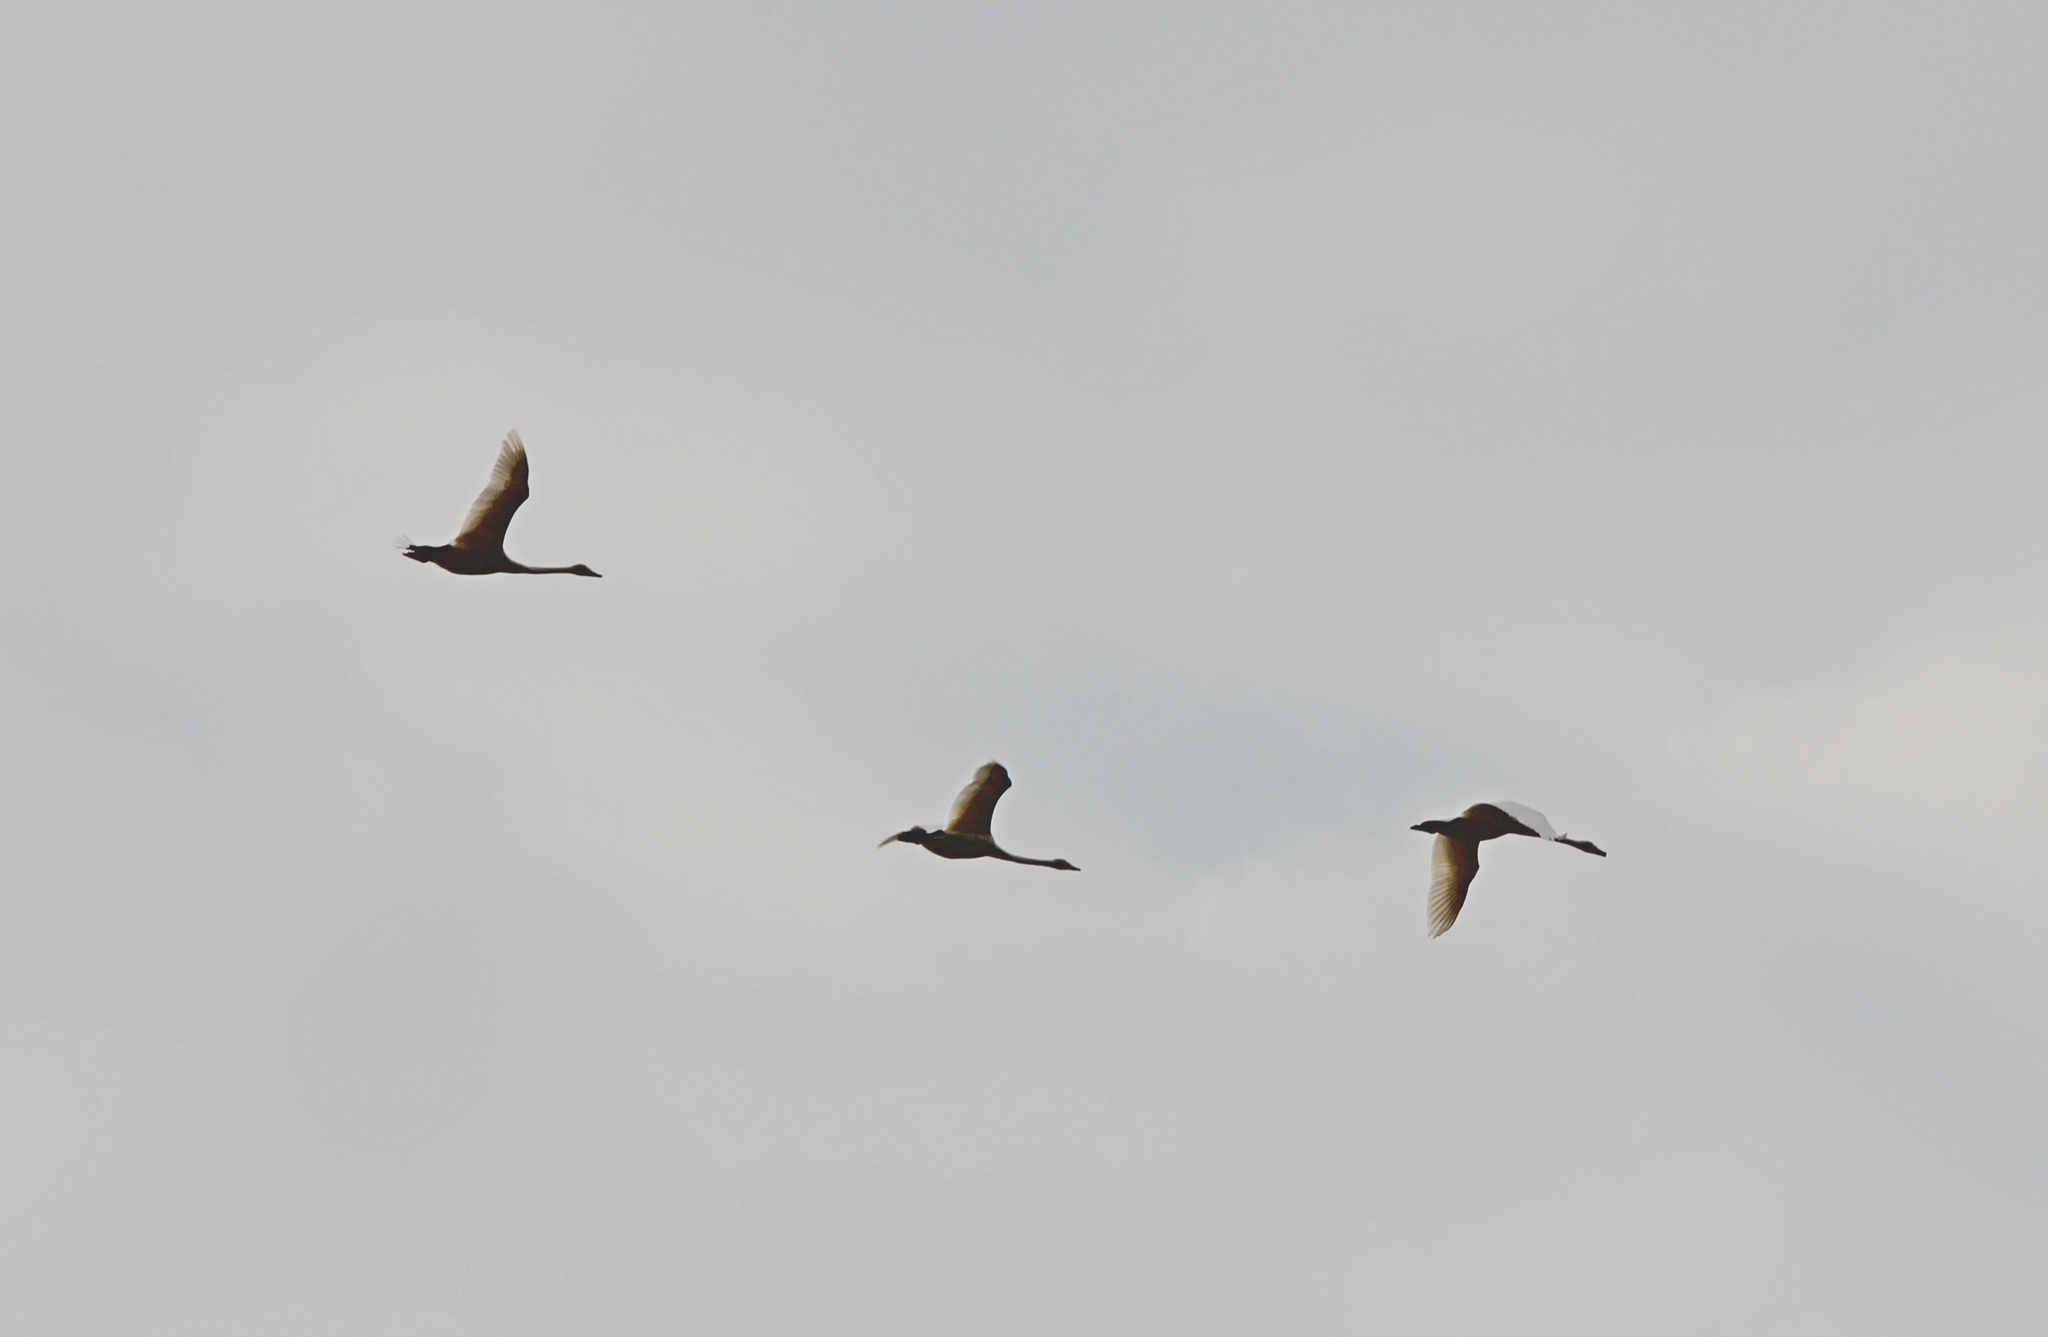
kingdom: Animalia
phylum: Chordata
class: Aves
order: Anseriformes
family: Anatidae
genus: Cygnus
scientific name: Cygnus cygnus
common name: Whooper swan
